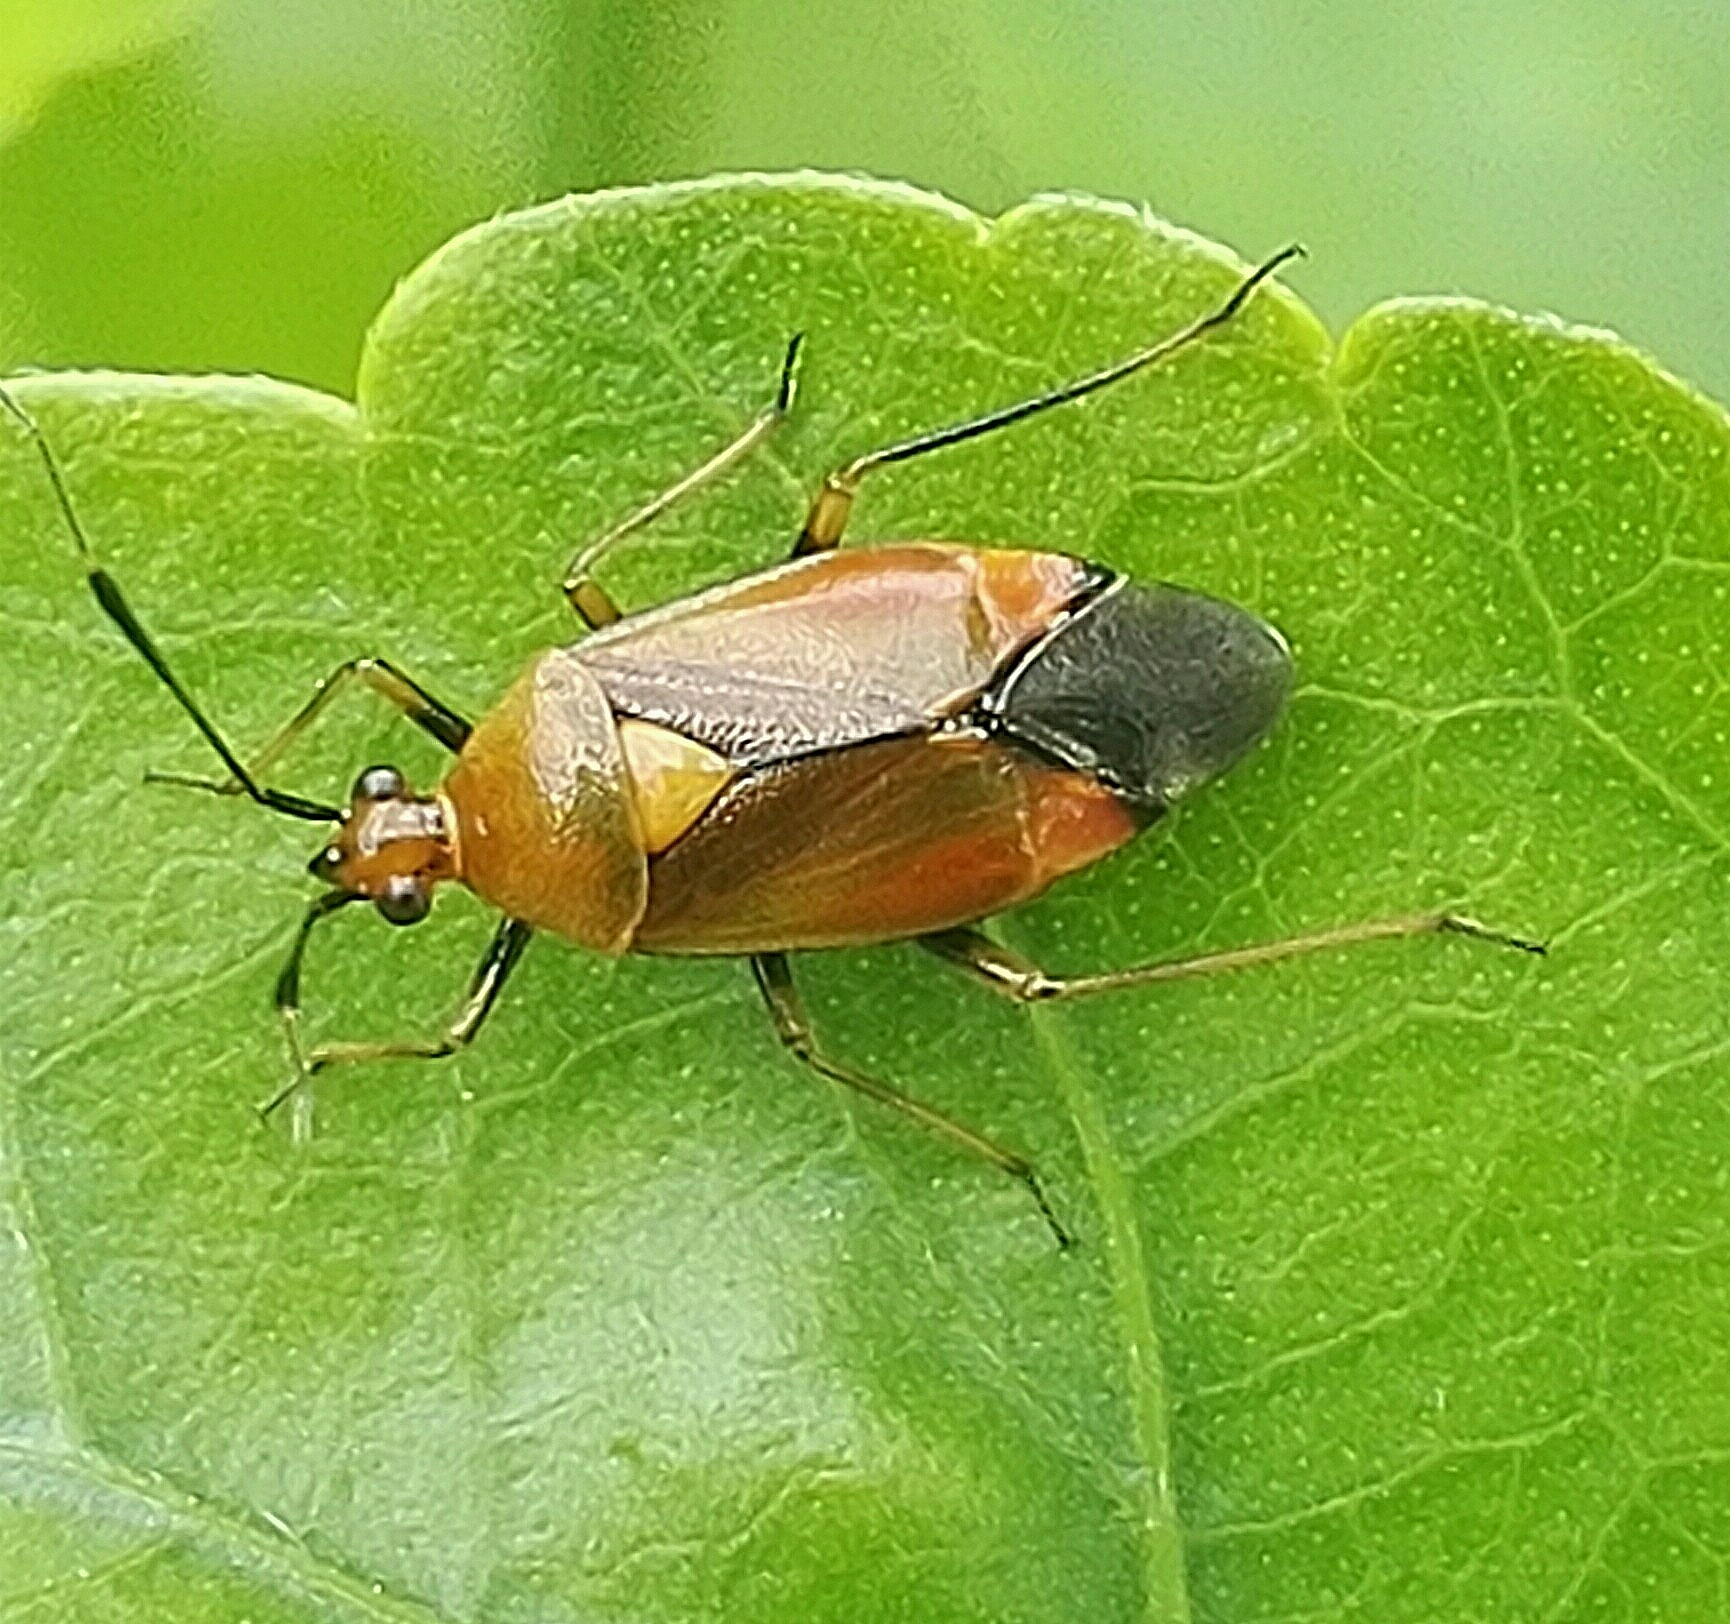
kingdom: Animalia
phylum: Arthropoda
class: Insecta
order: Hemiptera
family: Miridae
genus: Deraeocoris
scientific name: Deraeocoris ruber
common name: Plant bug
